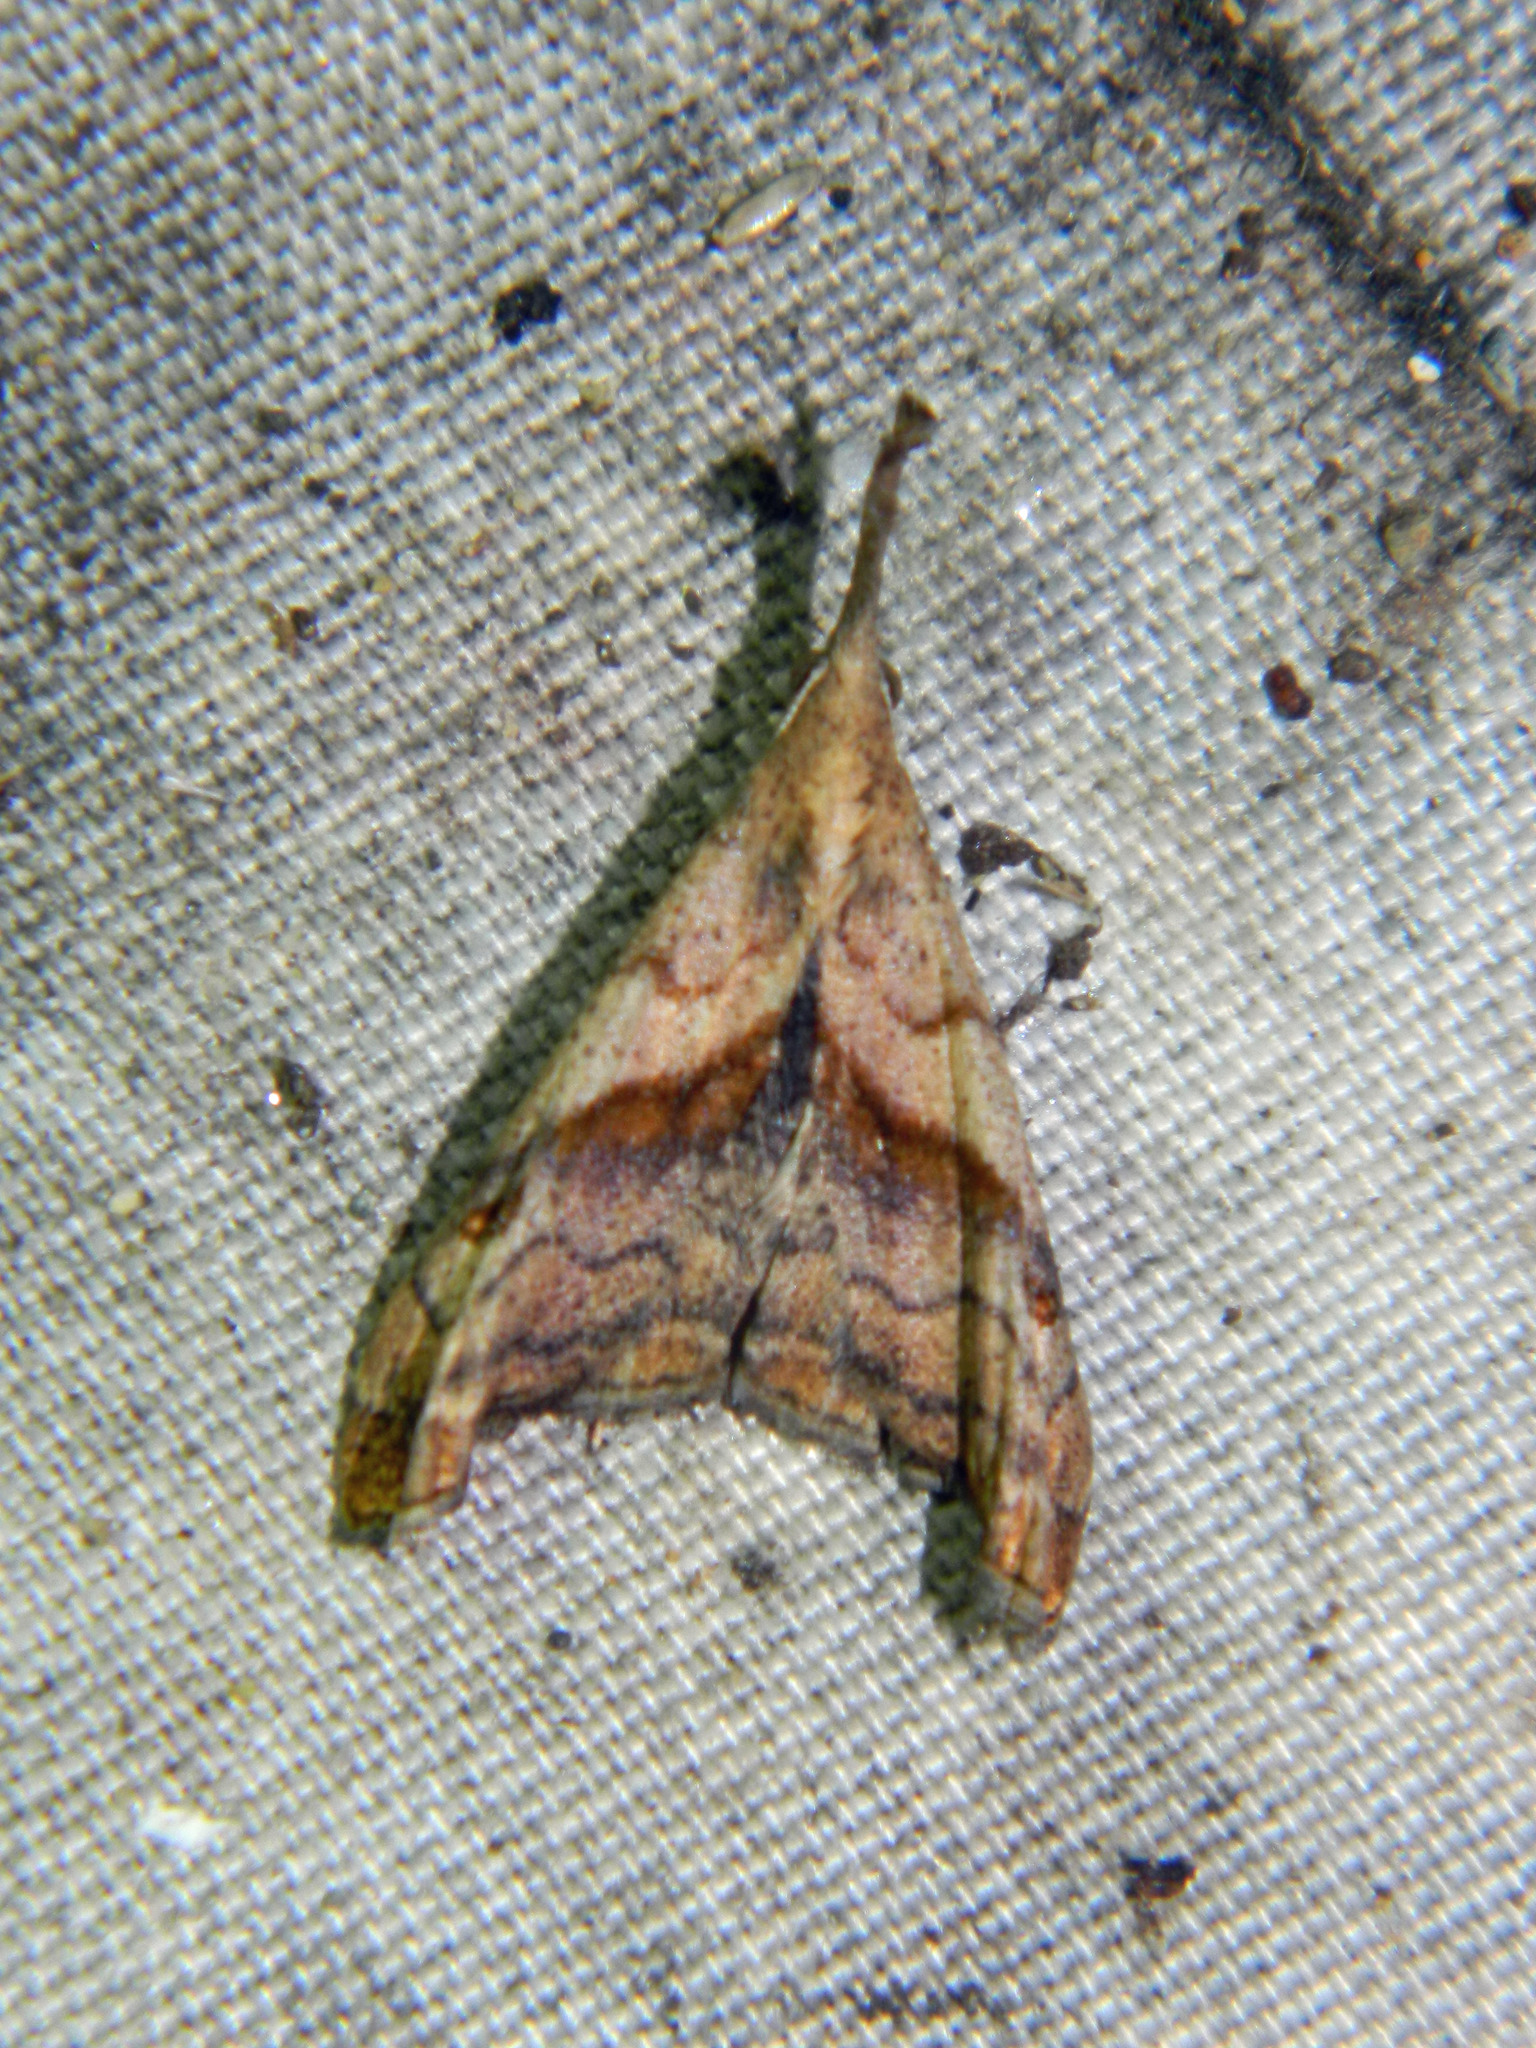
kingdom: Animalia
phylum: Arthropoda
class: Insecta
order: Lepidoptera
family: Erebidae
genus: Palthis
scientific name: Palthis angulalis
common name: Dark-spotted palthis moth
